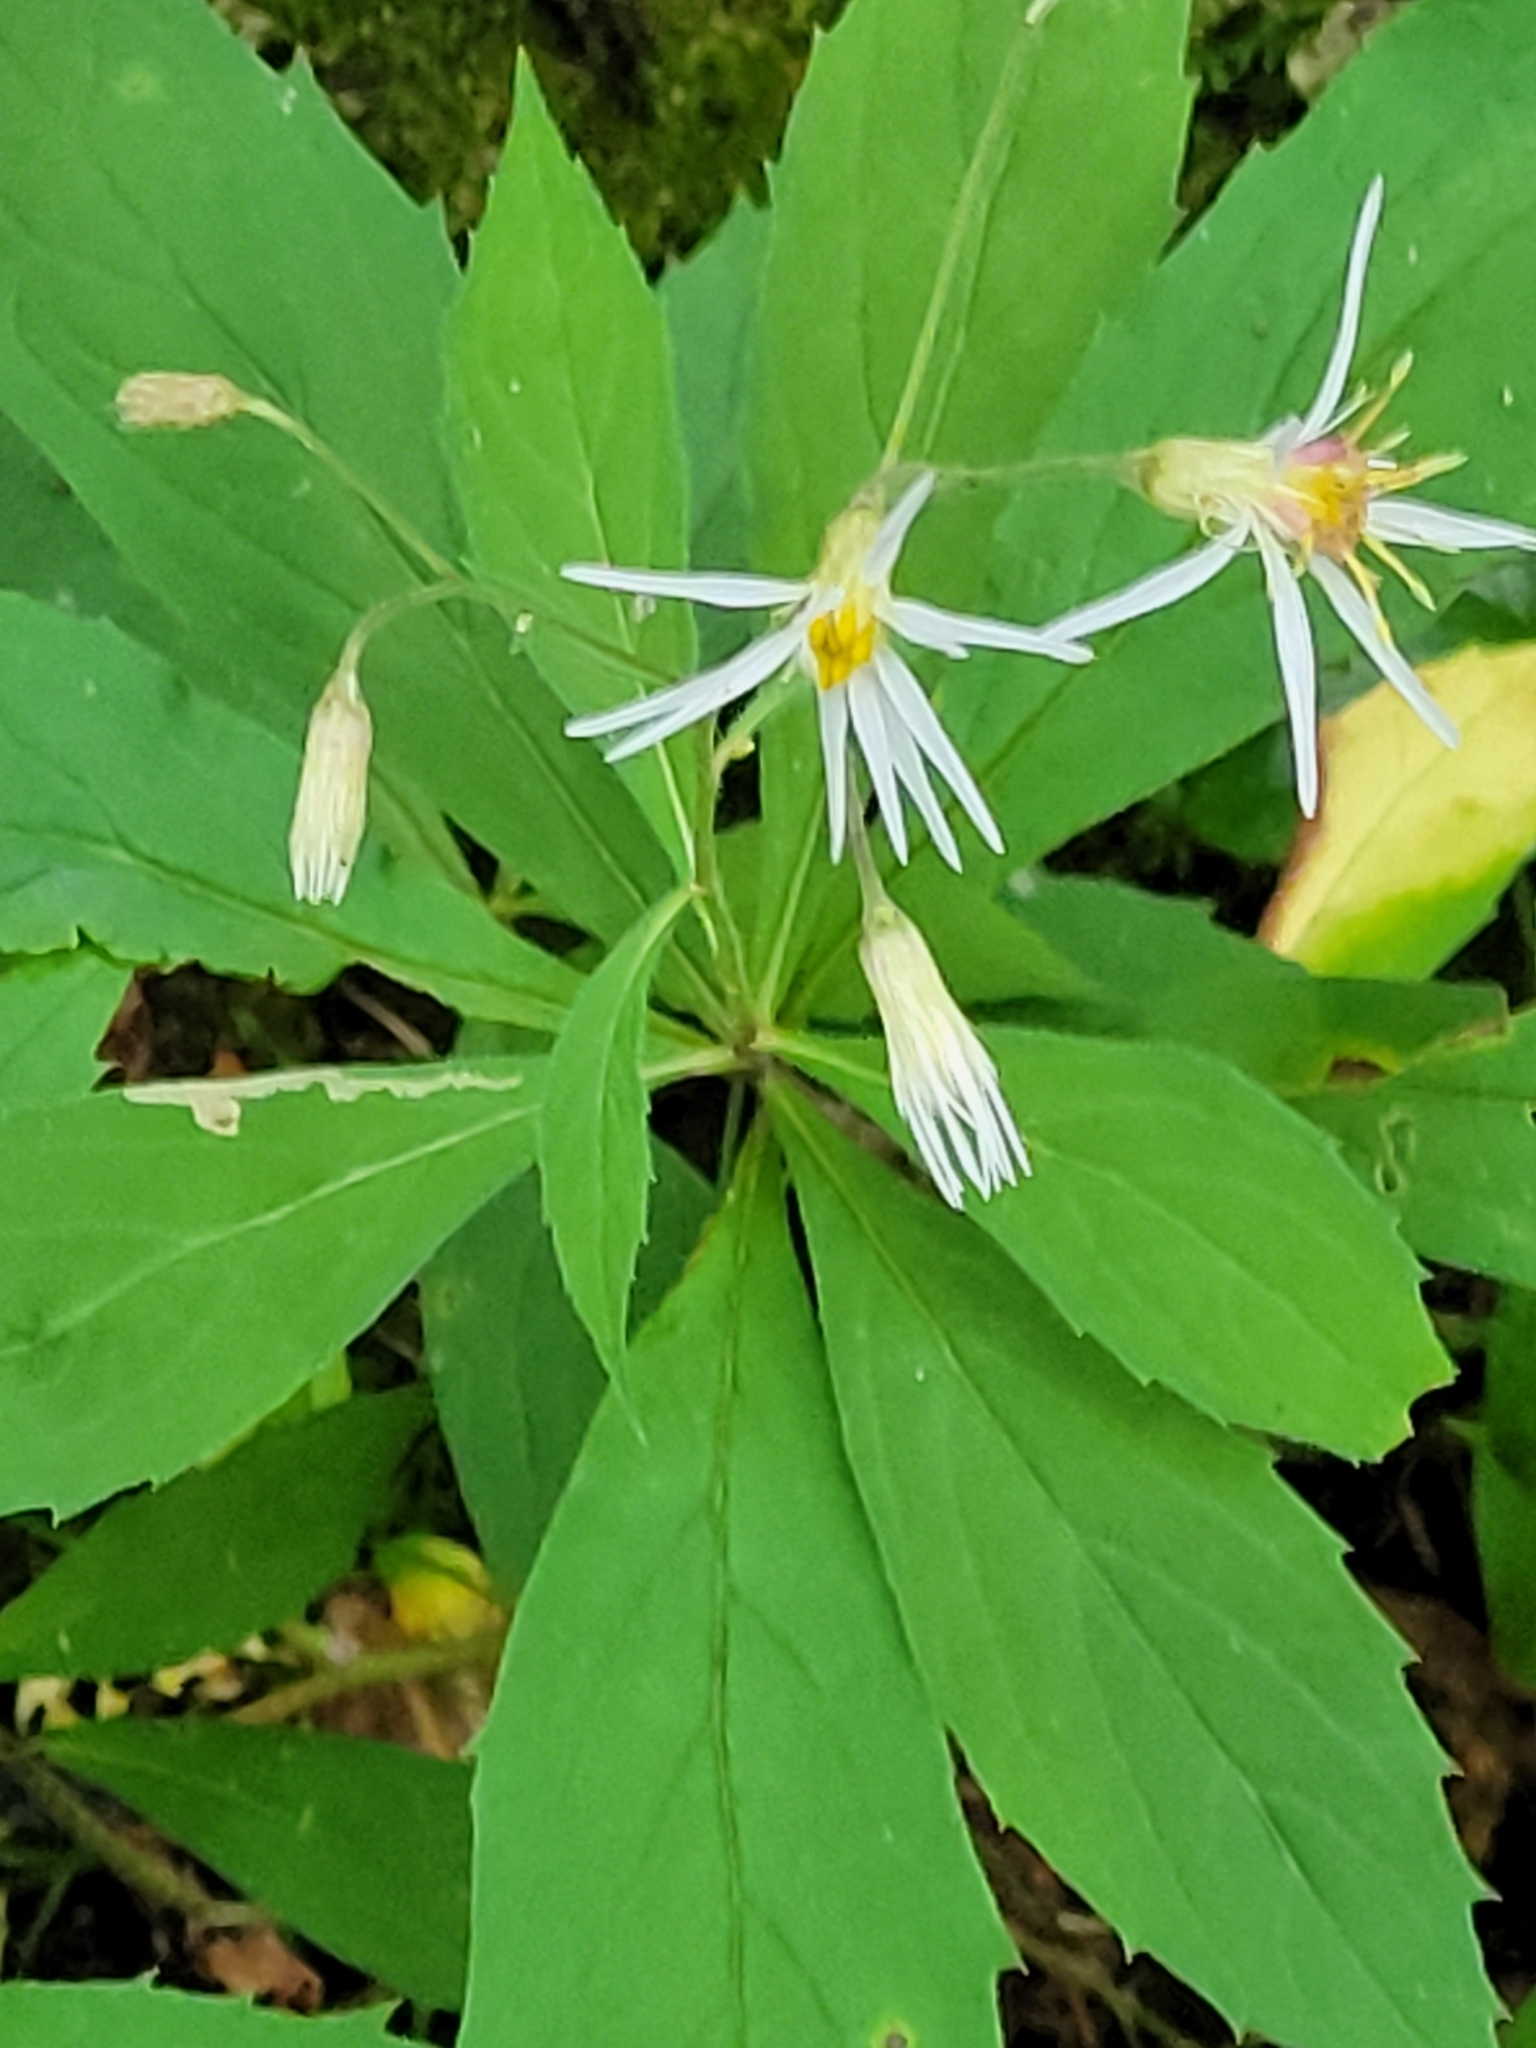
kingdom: Plantae
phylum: Tracheophyta
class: Magnoliopsida
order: Asterales
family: Asteraceae
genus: Oclemena
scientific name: Oclemena acuminata
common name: Mountain aster
